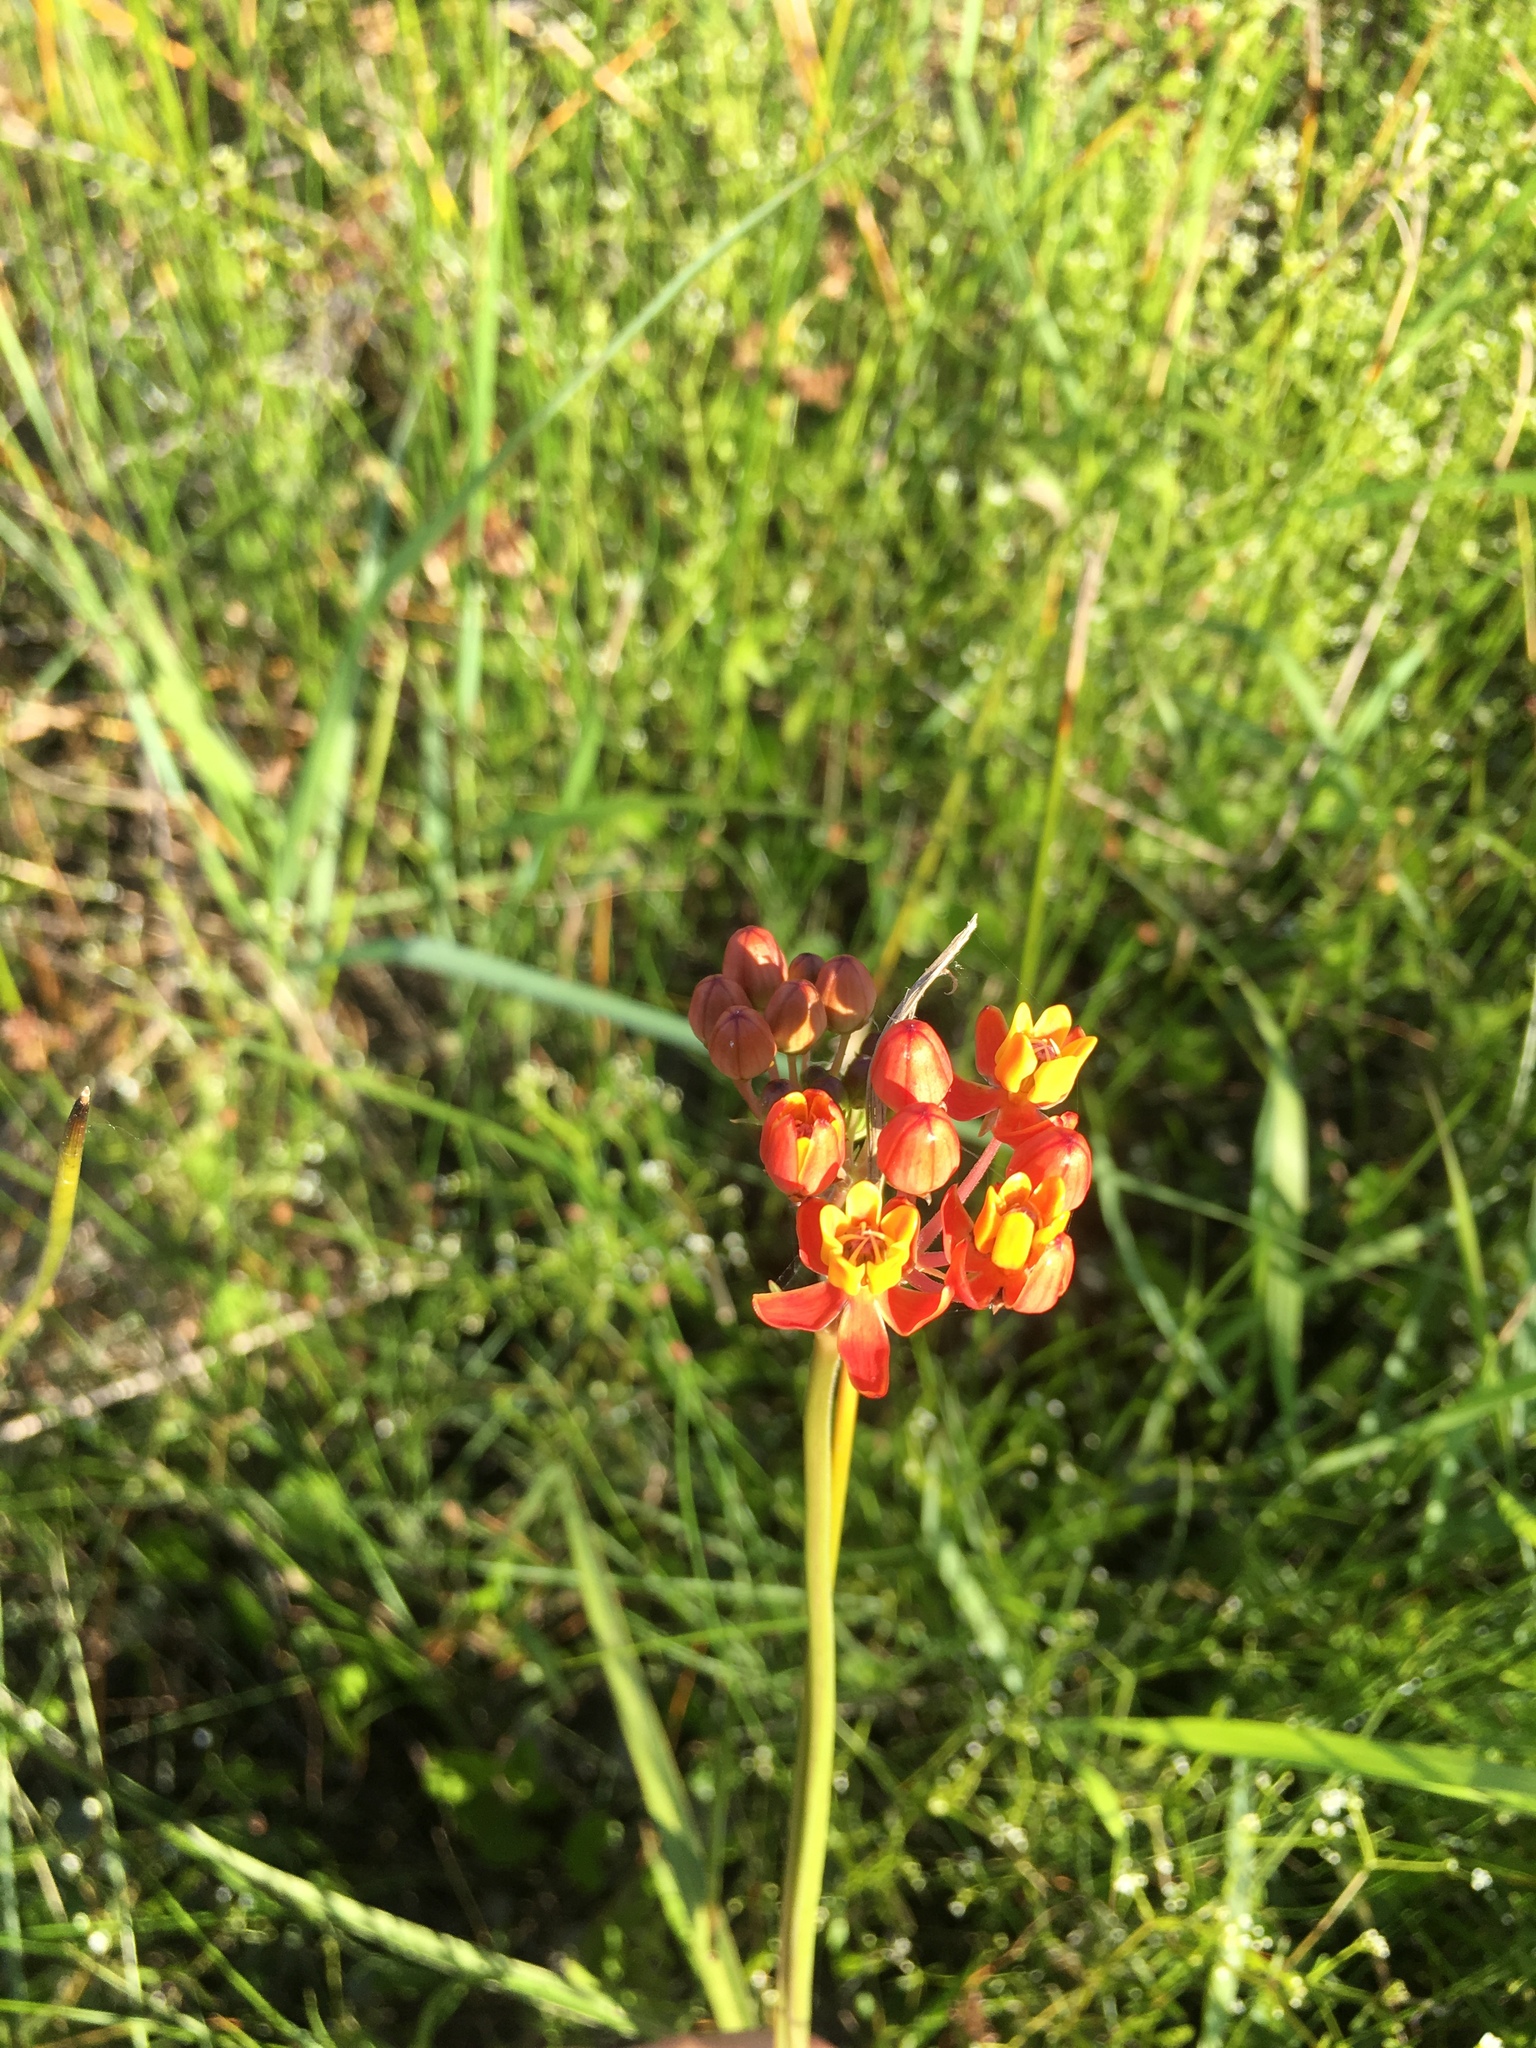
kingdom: Plantae
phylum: Tracheophyta
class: Magnoliopsida
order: Gentianales
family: Apocynaceae
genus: Asclepias
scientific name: Asclepias lanceolata
